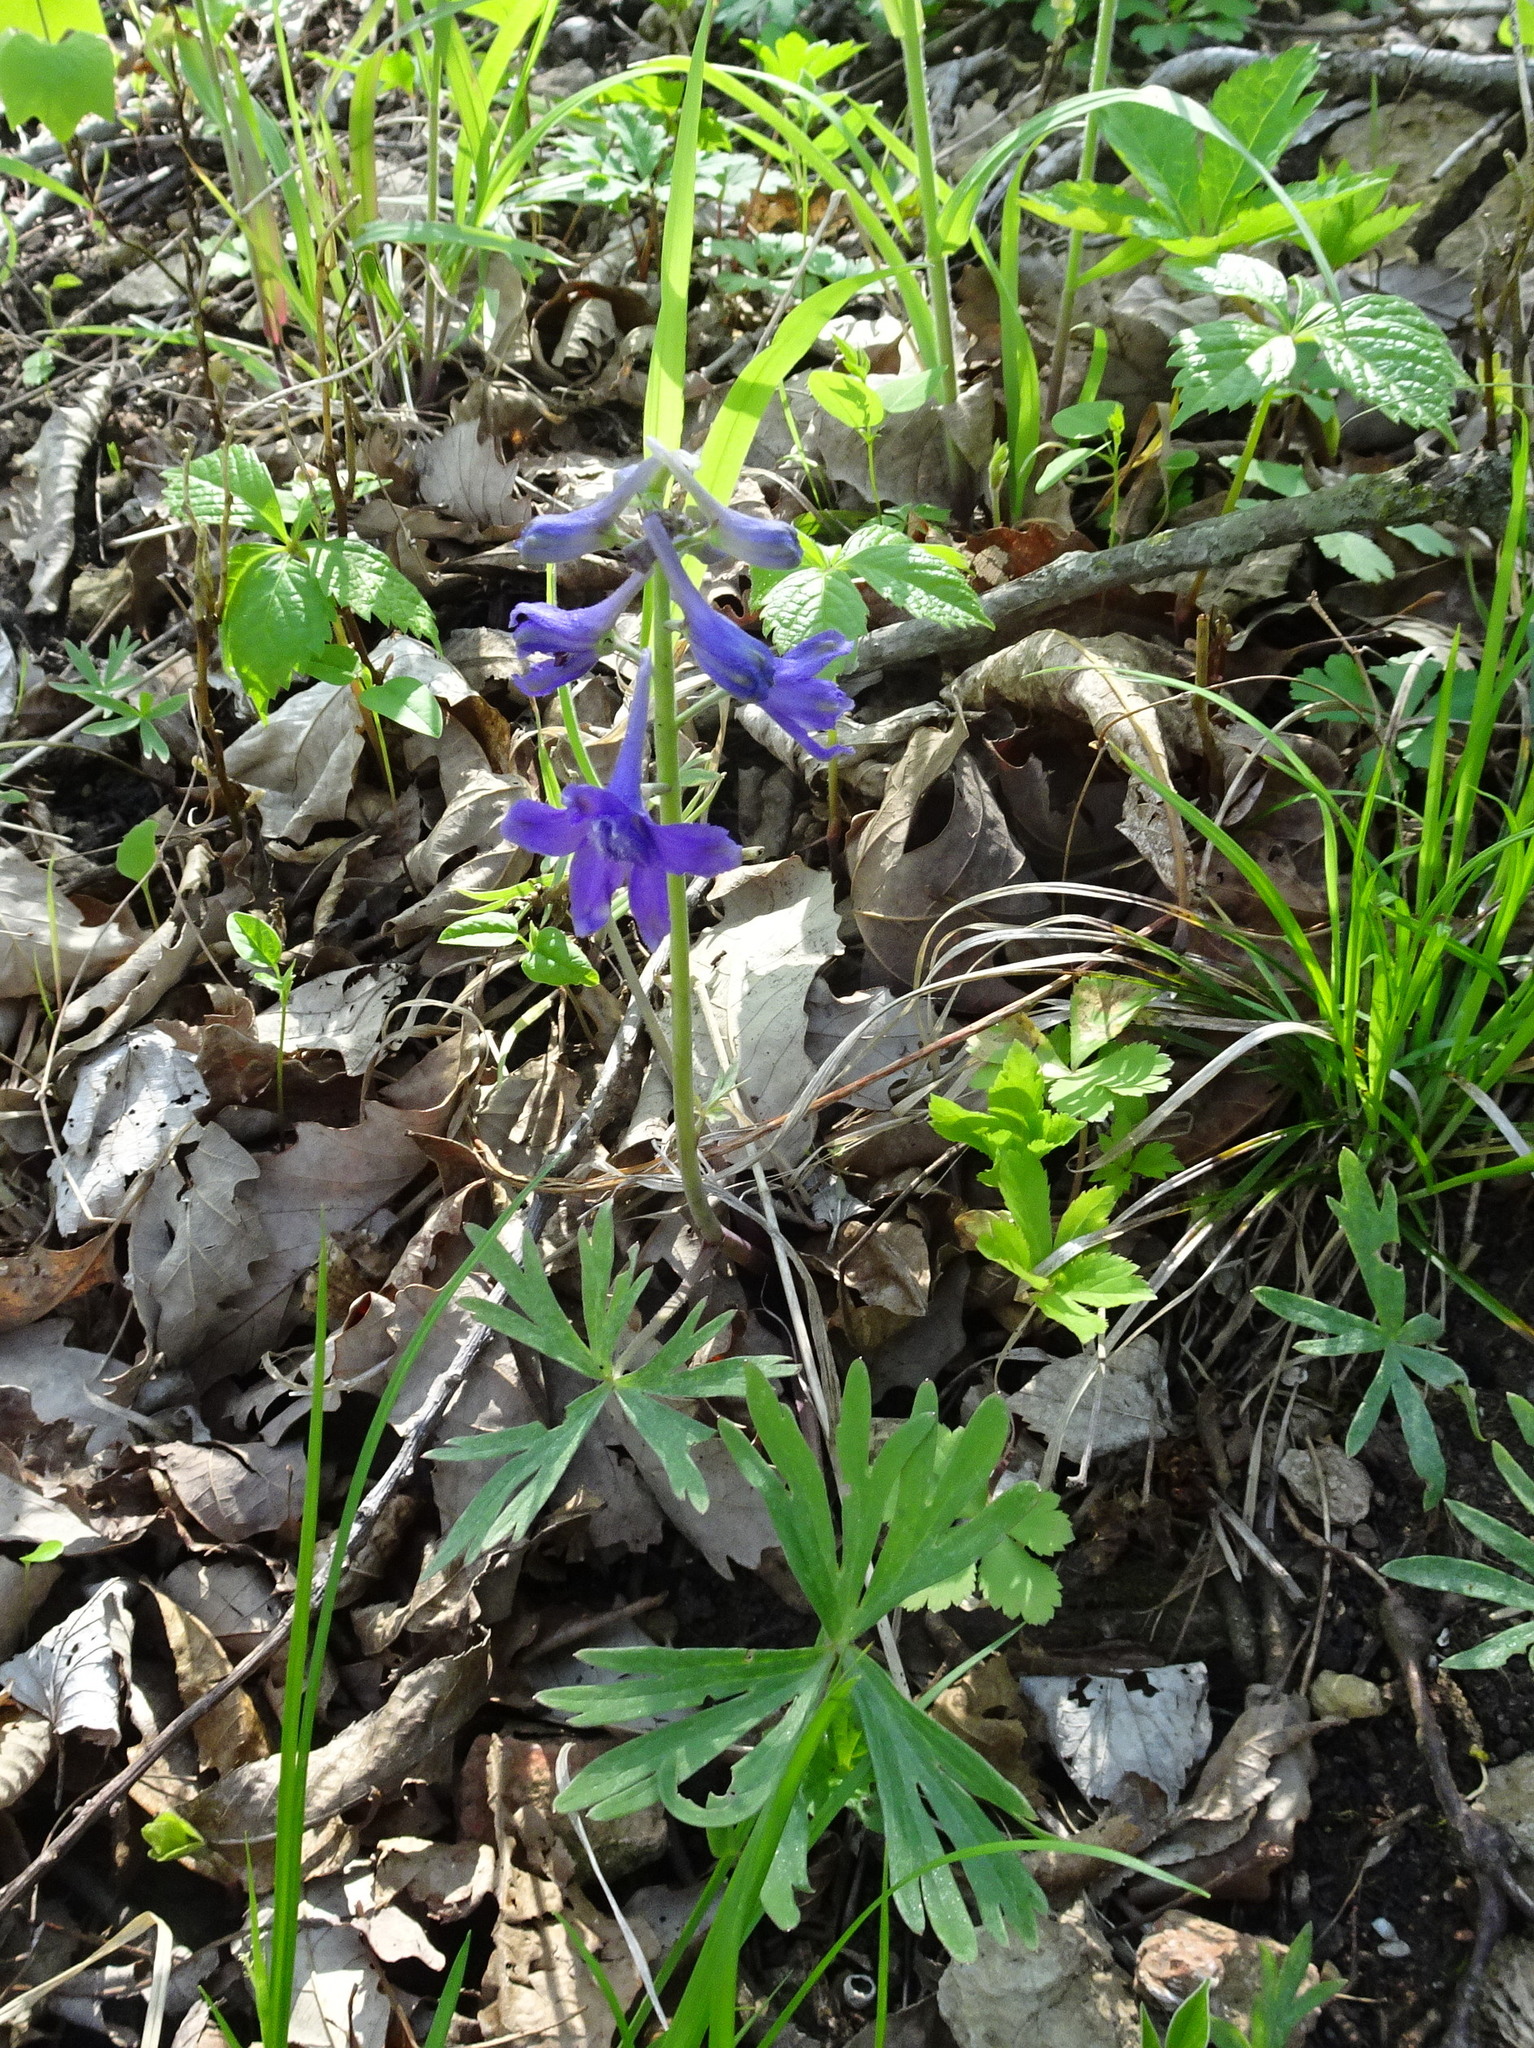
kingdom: Plantae
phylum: Tracheophyta
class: Magnoliopsida
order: Ranunculales
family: Ranunculaceae
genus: Delphinium
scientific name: Delphinium tricorne
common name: Dwarf larkspur
